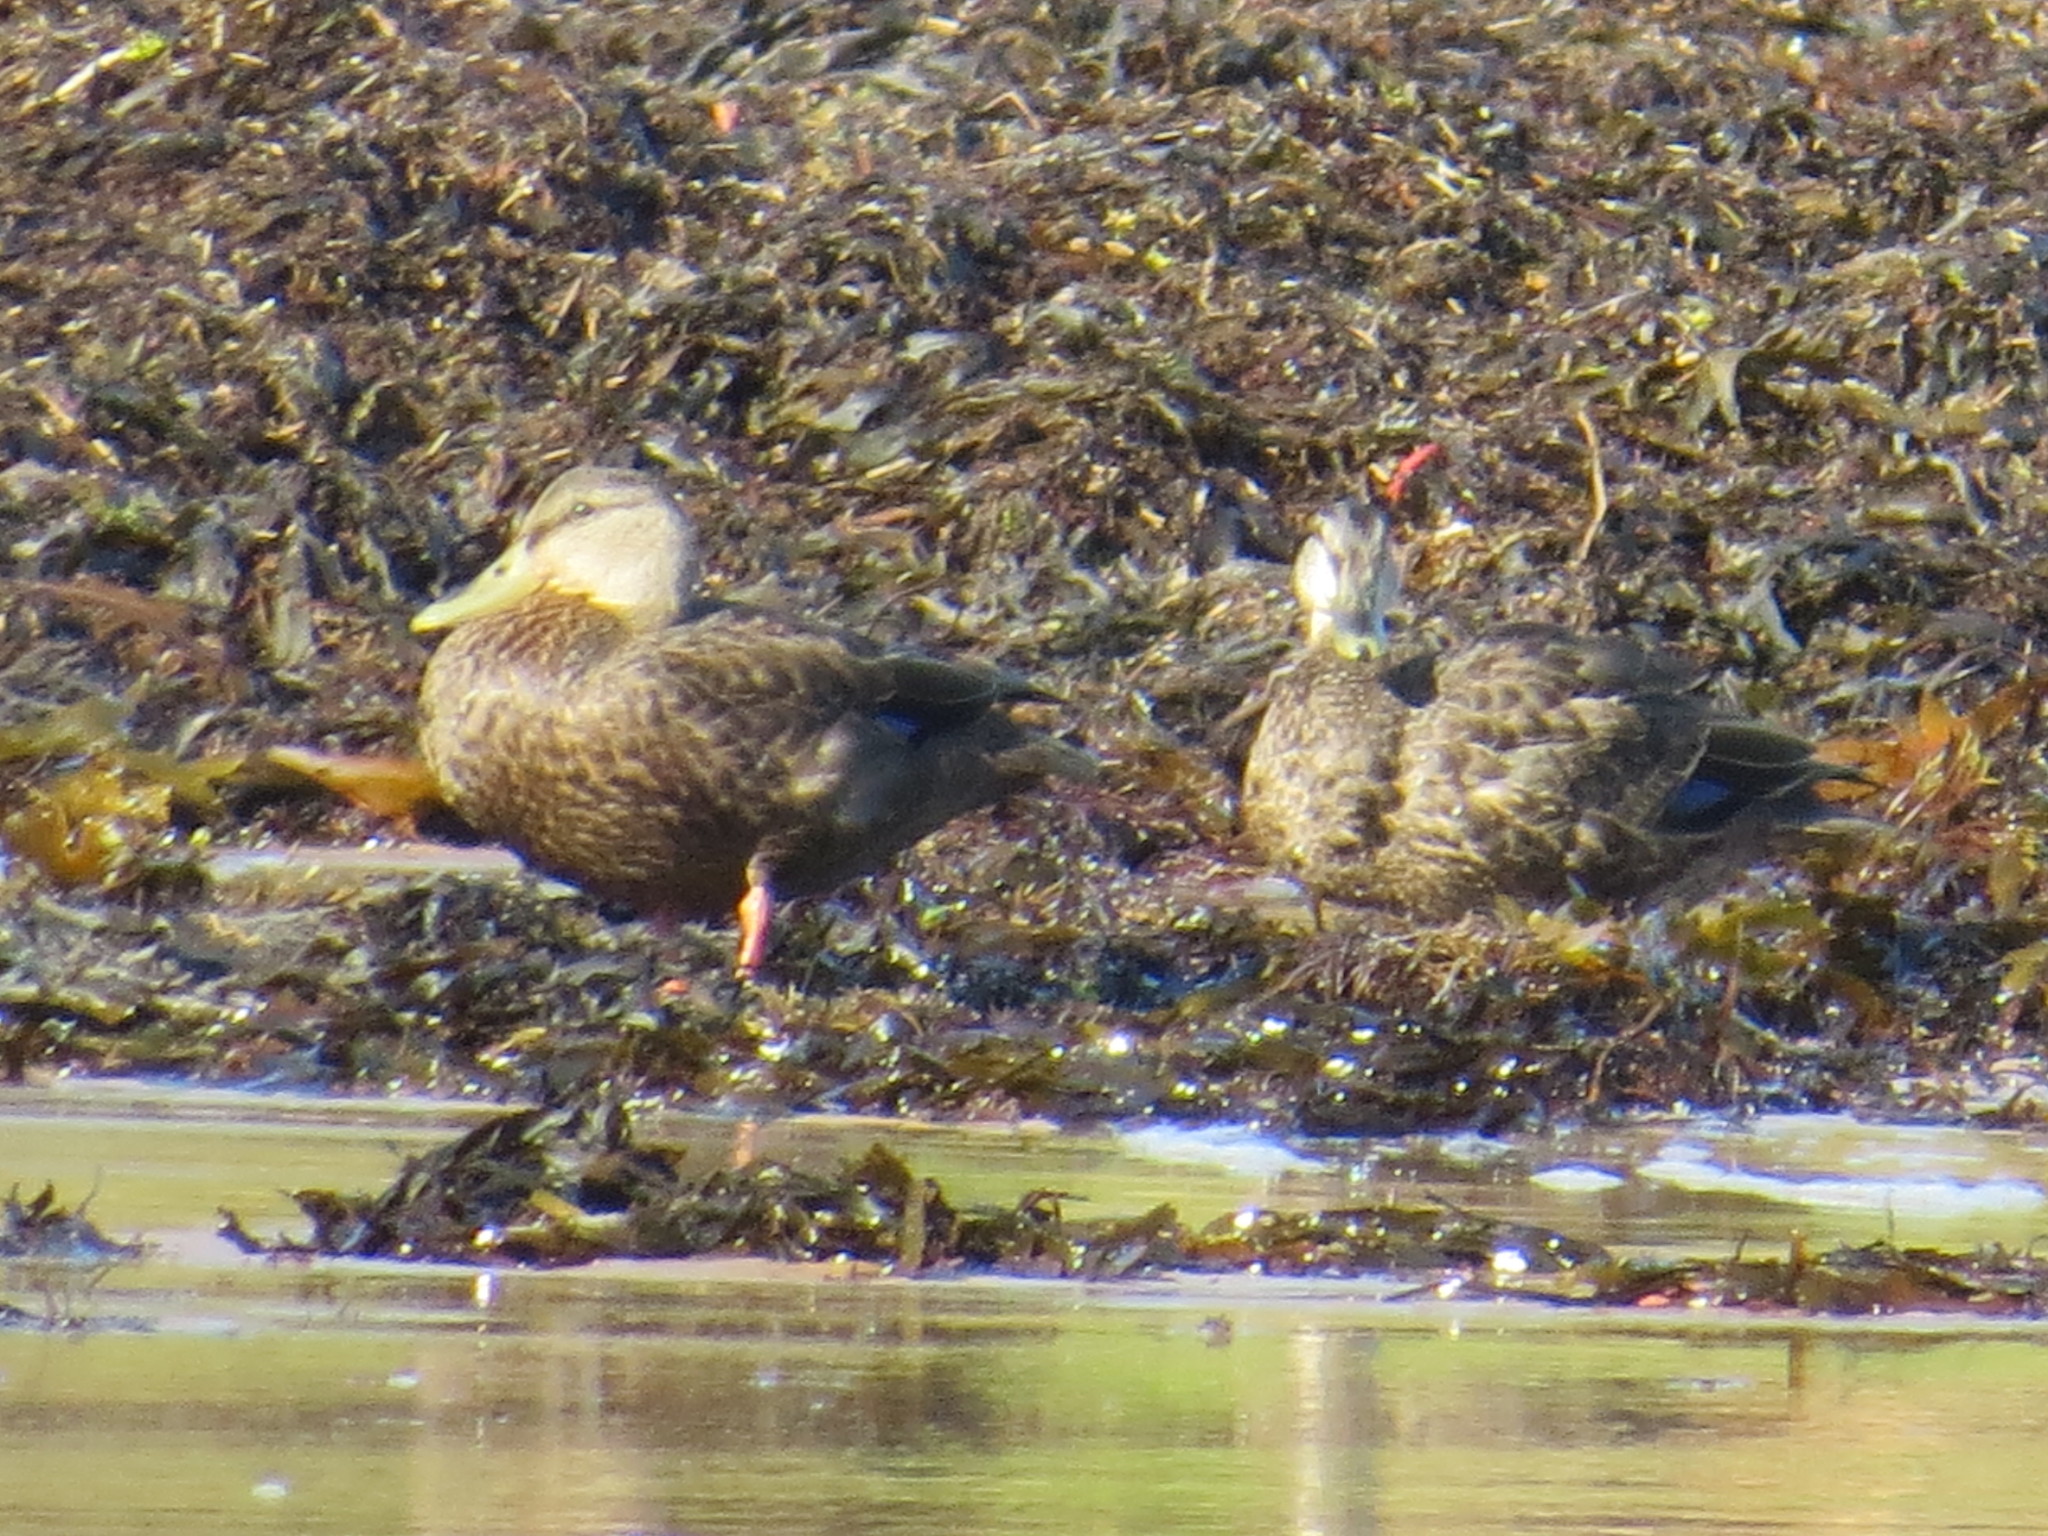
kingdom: Animalia
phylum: Chordata
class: Aves
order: Anseriformes
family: Anatidae
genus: Anas
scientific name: Anas rubripes
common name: American black duck
